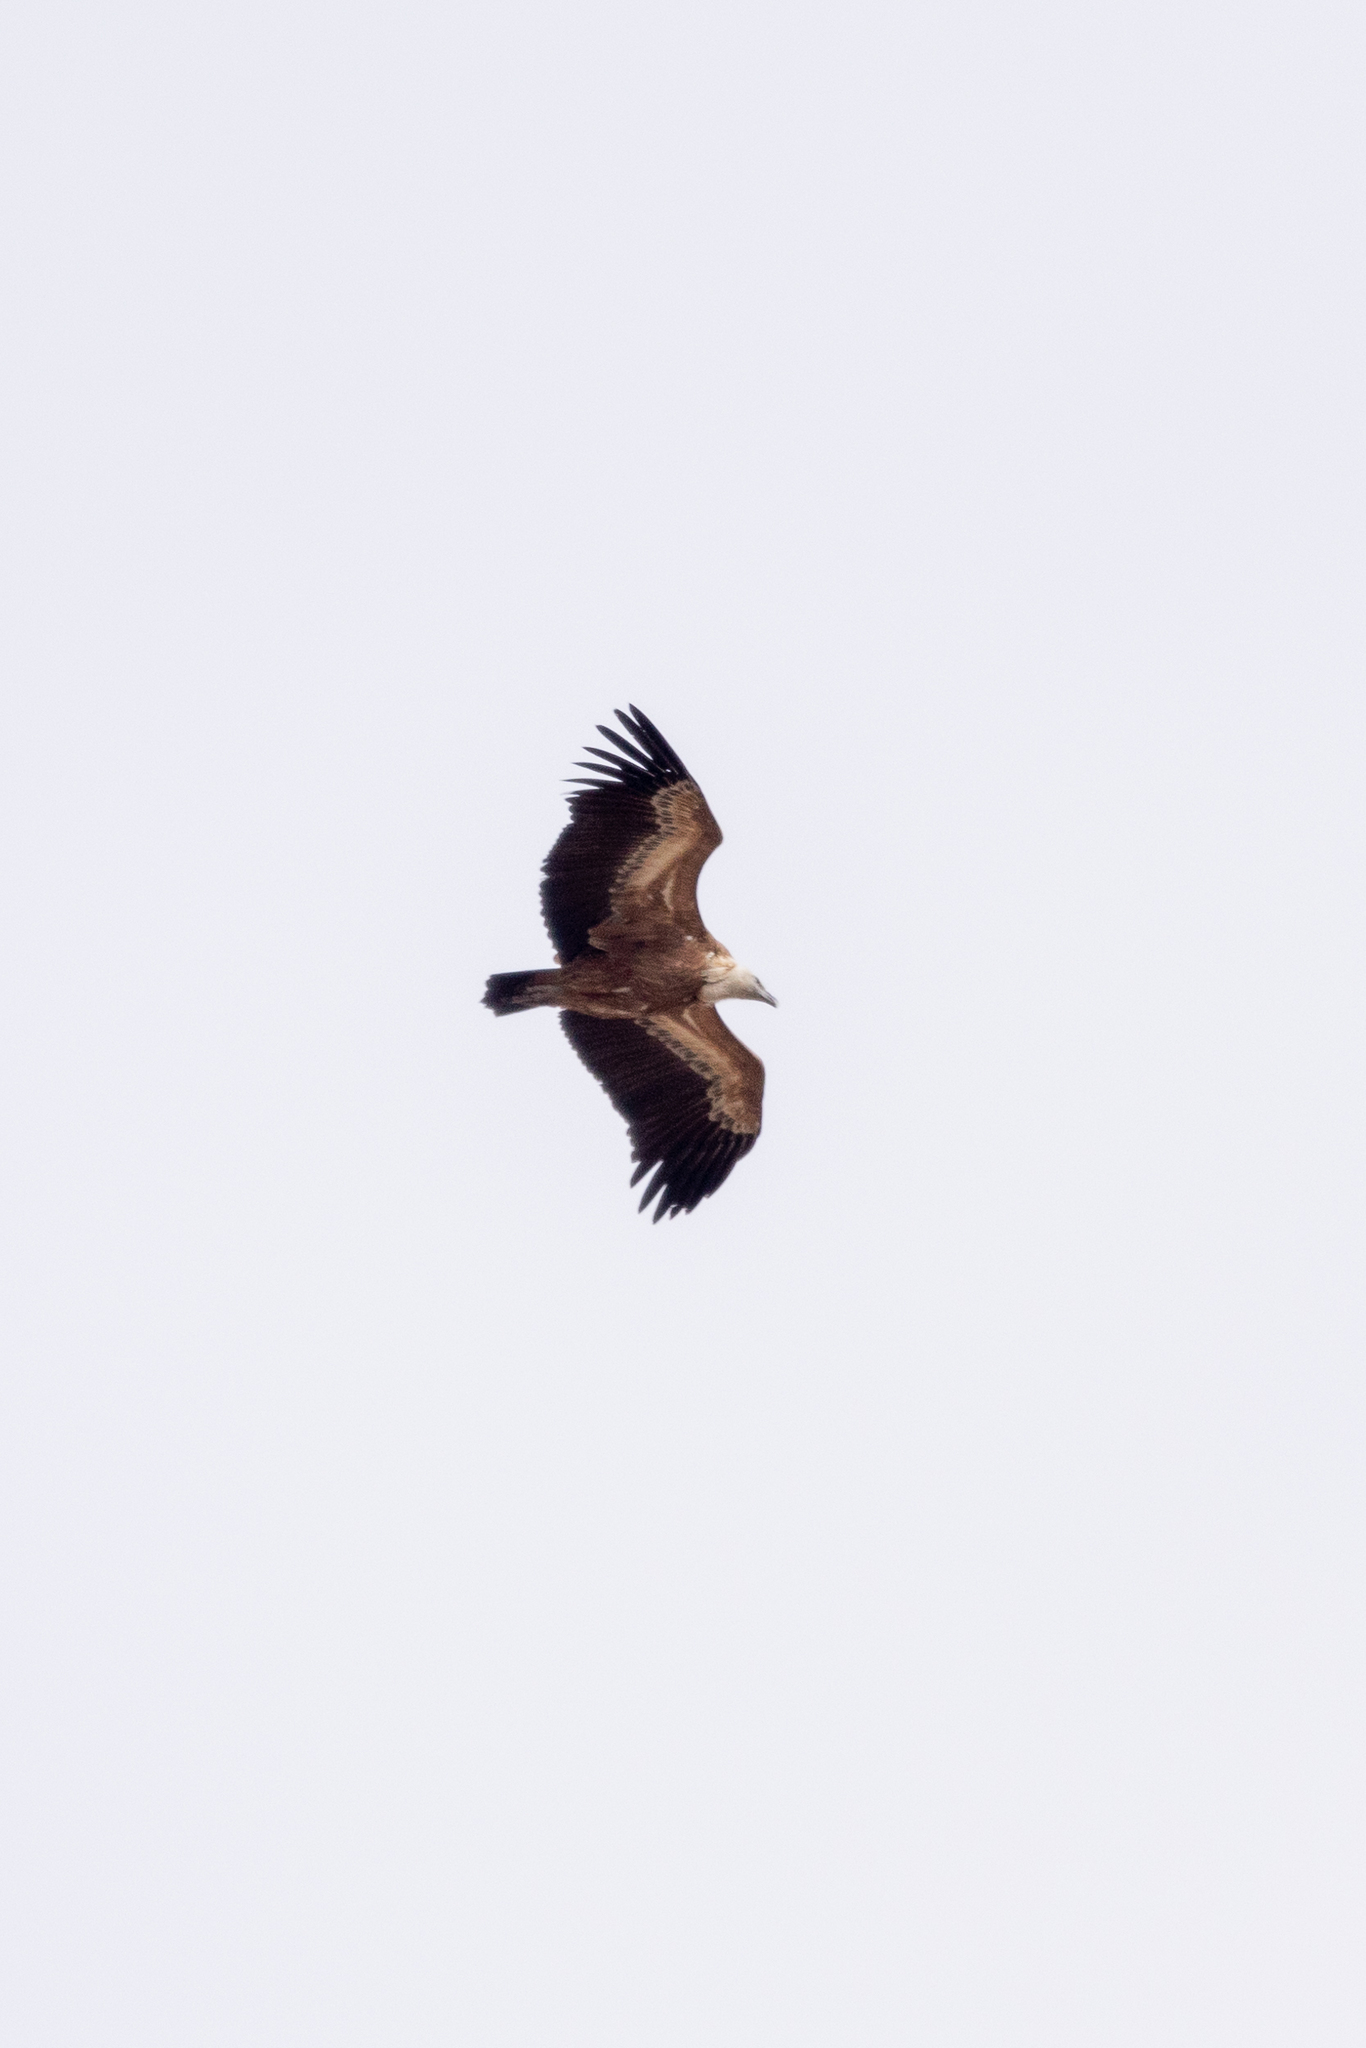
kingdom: Animalia
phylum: Chordata
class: Aves
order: Accipitriformes
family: Accipitridae
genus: Gyps
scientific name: Gyps fulvus
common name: Griffon vulture
